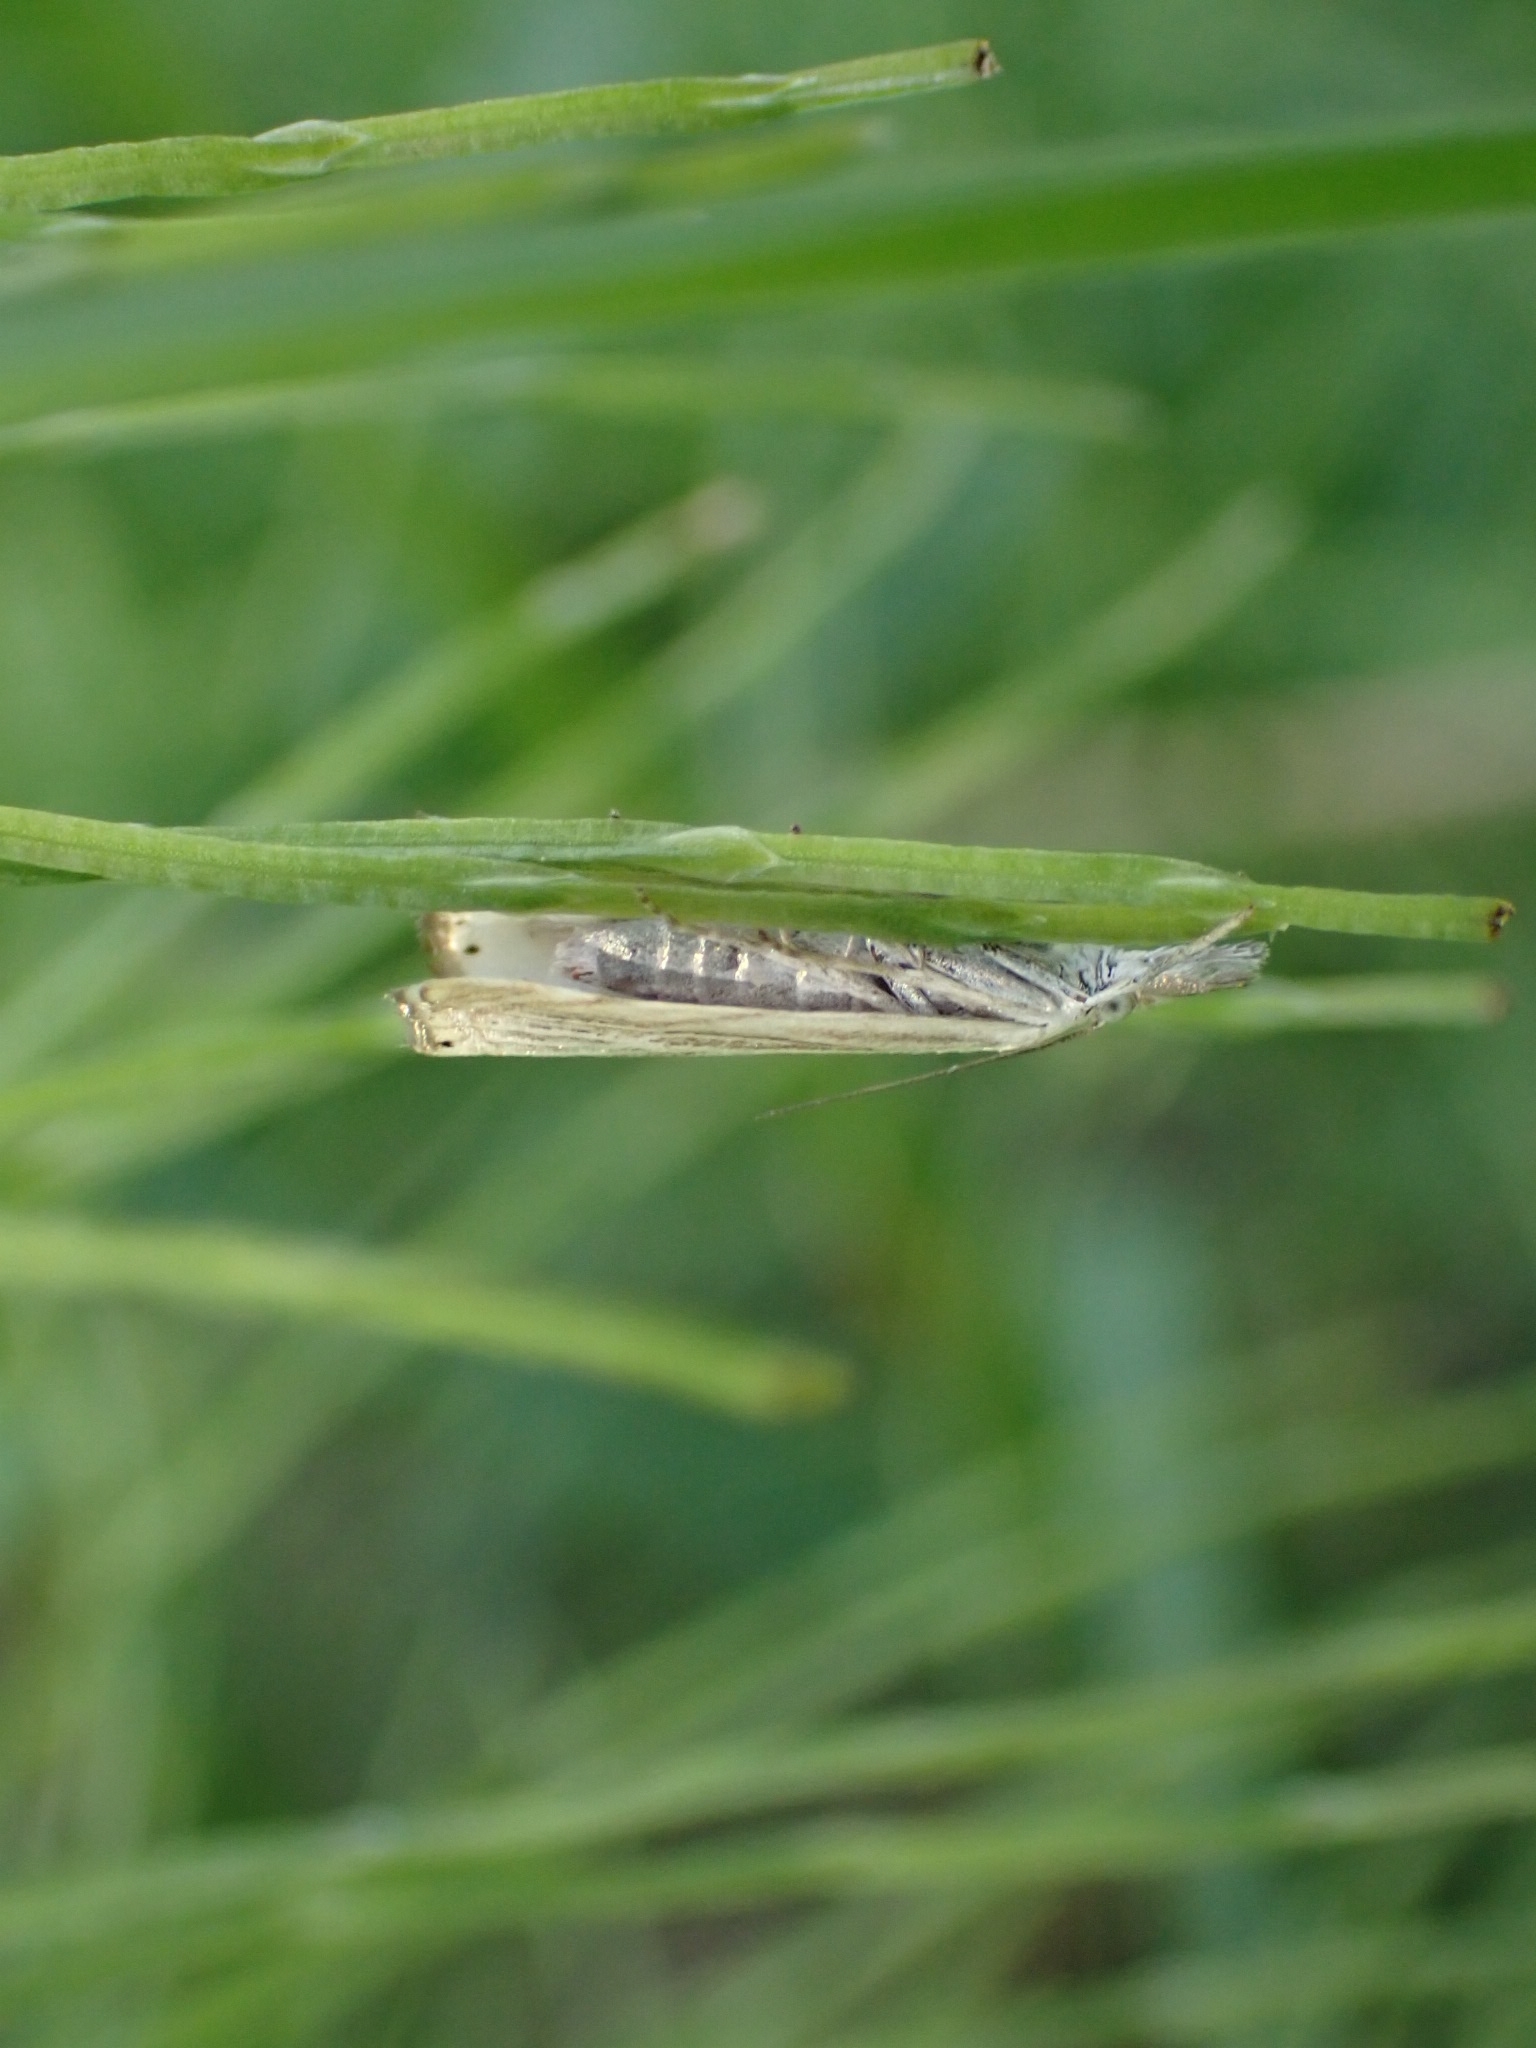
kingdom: Animalia
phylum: Arthropoda
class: Insecta
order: Lepidoptera
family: Crambidae
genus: Chrysoteuchia
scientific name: Chrysoteuchia culmella
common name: Garden grass-veneer
